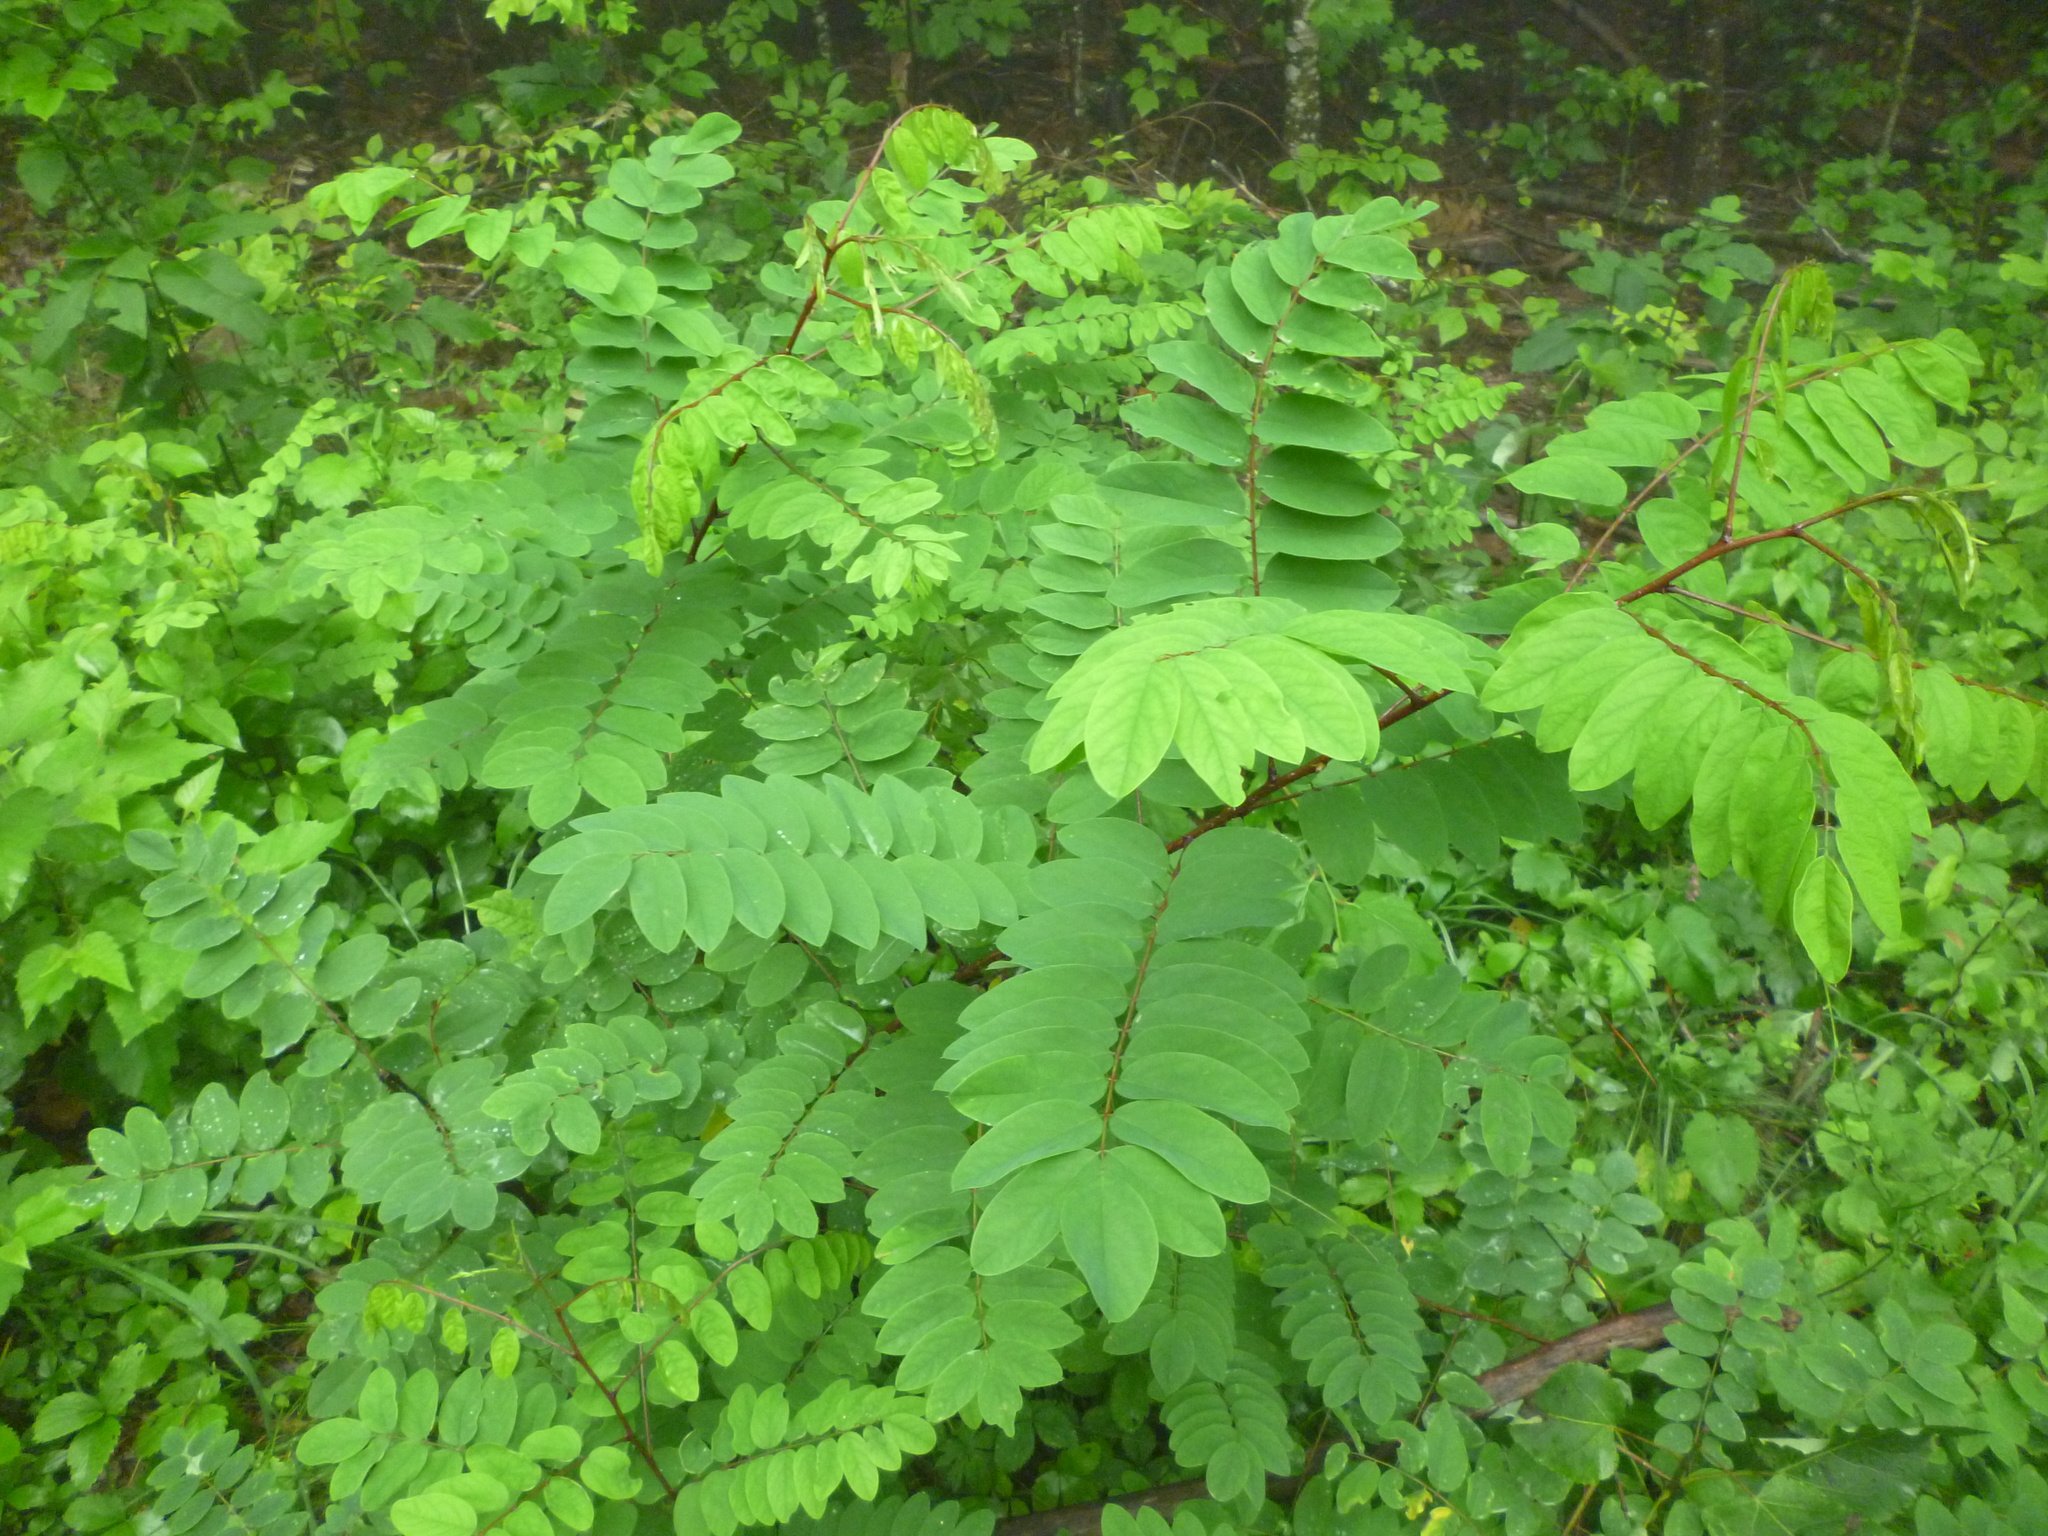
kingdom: Plantae
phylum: Tracheophyta
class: Magnoliopsida
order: Fabales
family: Fabaceae
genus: Robinia
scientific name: Robinia pseudoacacia
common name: Black locust
